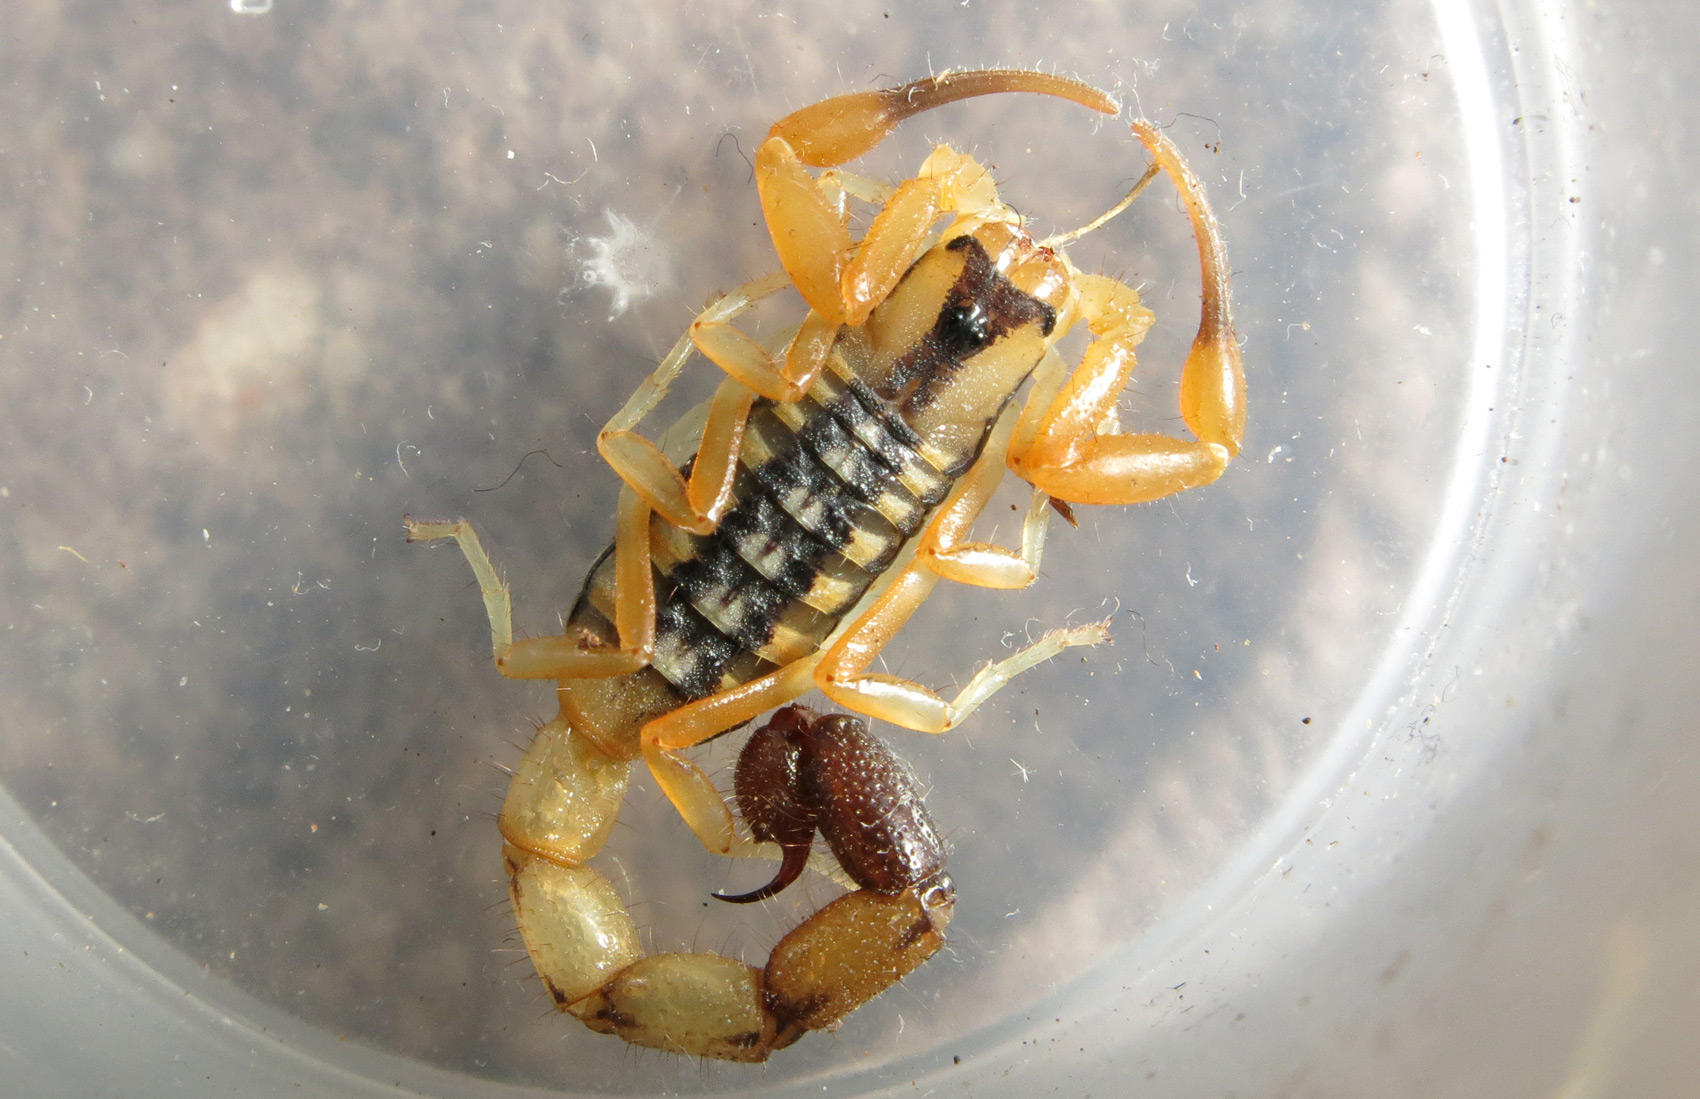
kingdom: Animalia
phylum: Arthropoda
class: Arachnida
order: Scorpiones
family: Buthidae
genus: Uroplectes
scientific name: Uroplectes chubbi
